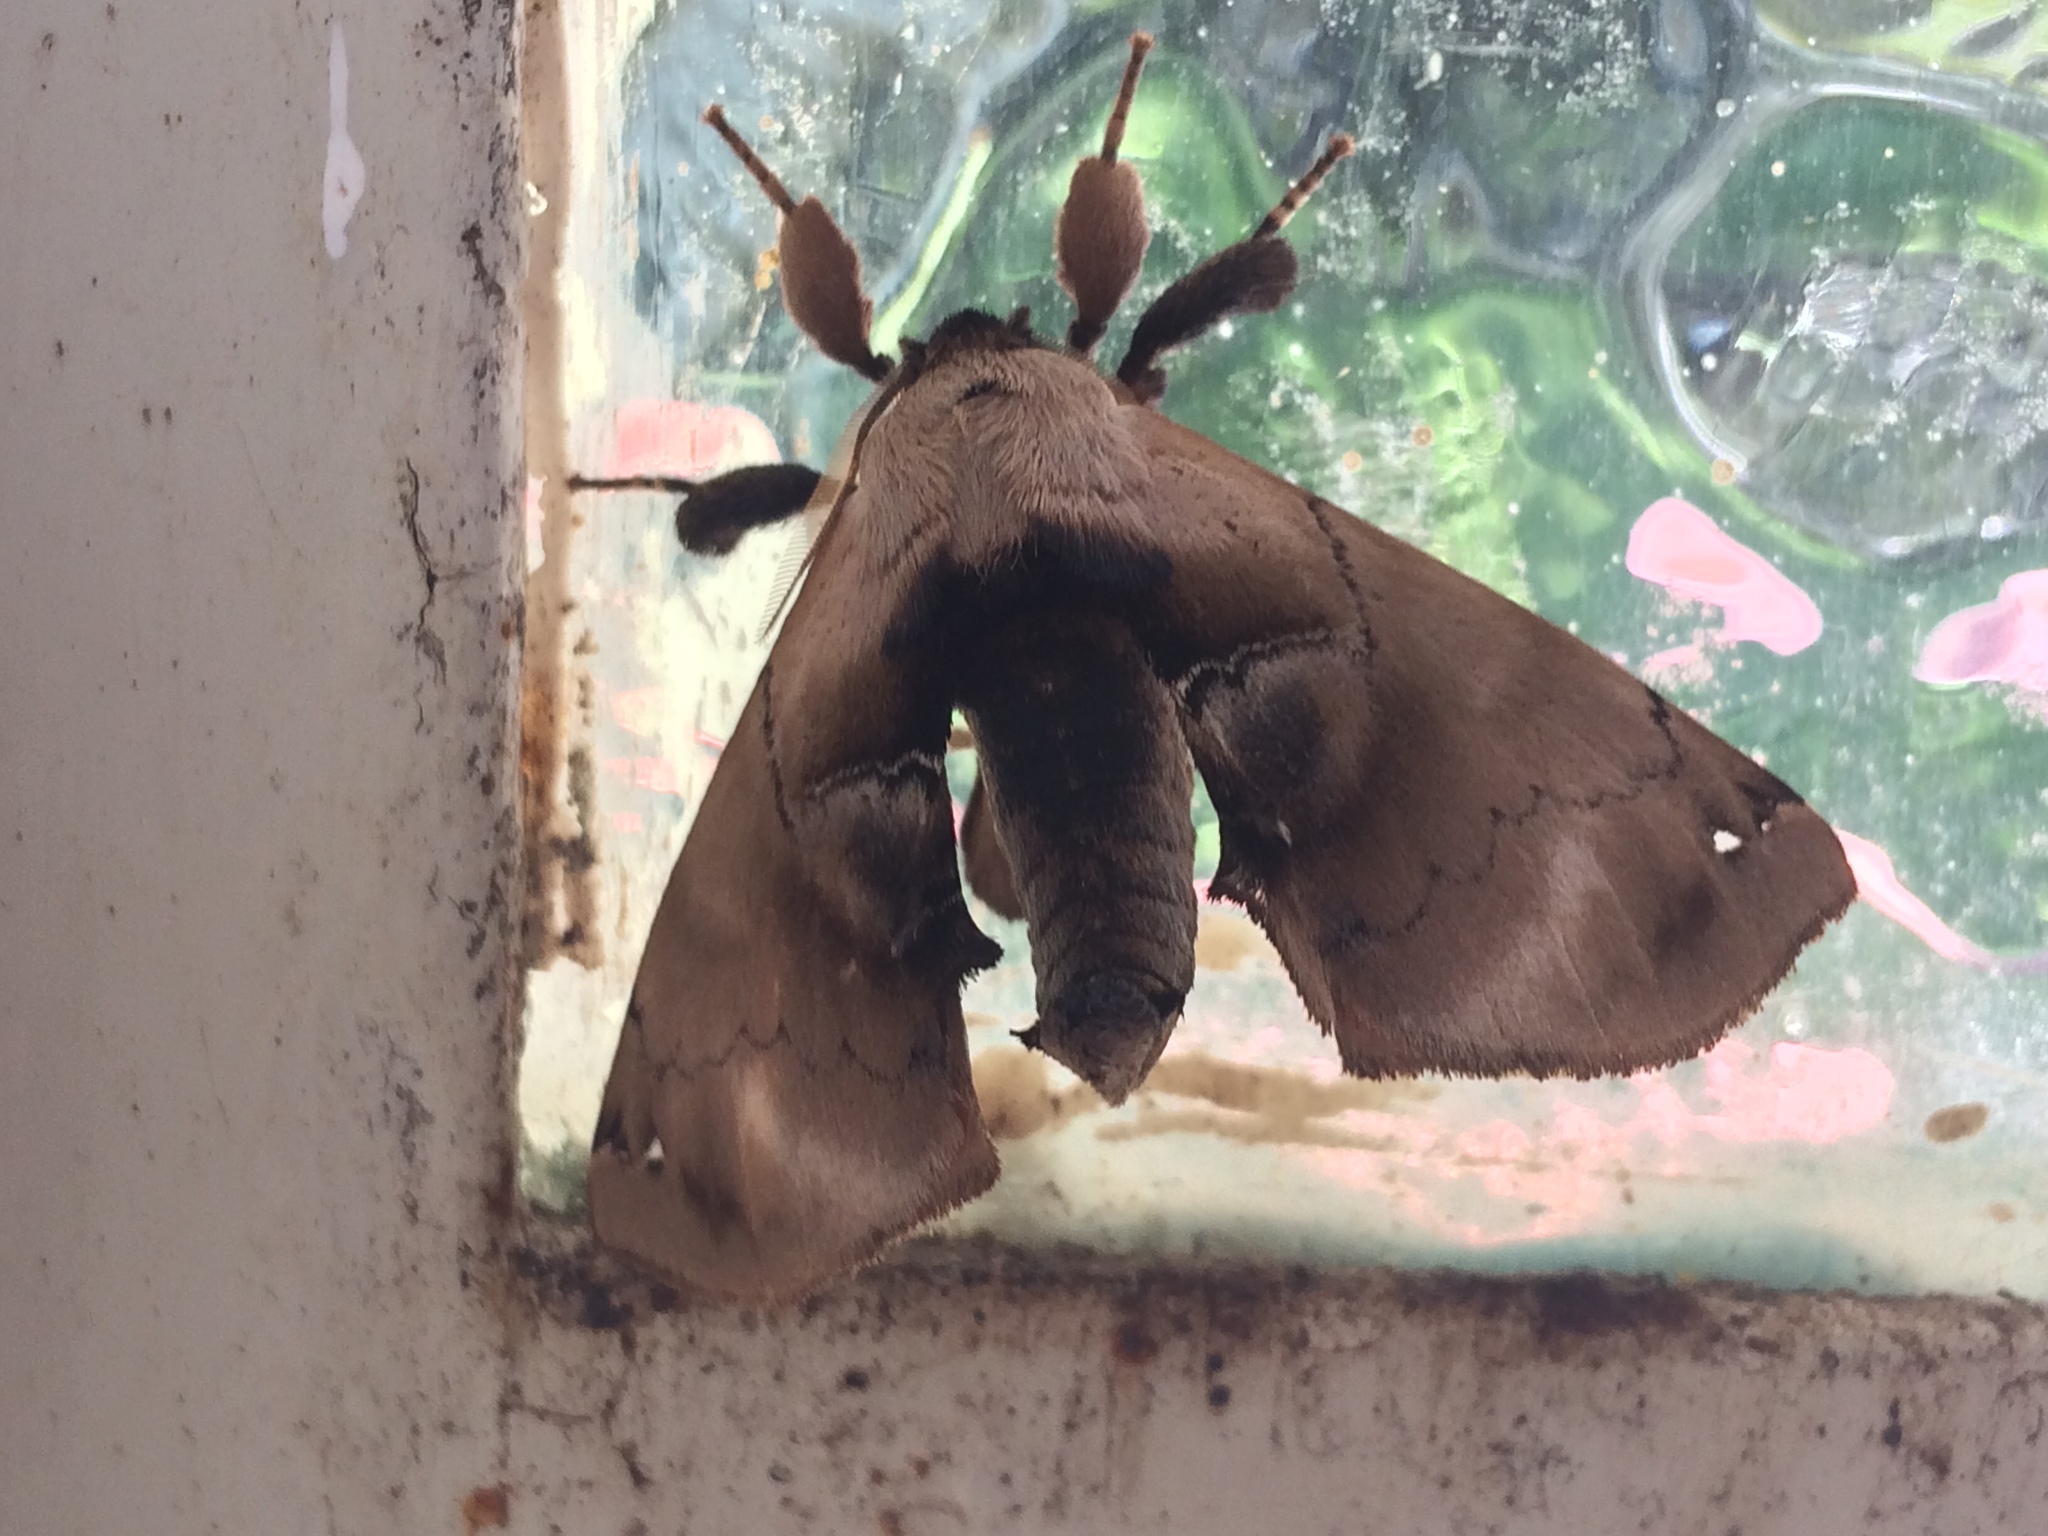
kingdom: Animalia
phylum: Arthropoda
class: Insecta
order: Lepidoptera
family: Apatelodidae
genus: Hygrochroa
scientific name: Hygrochroa Apatelodes sericea
